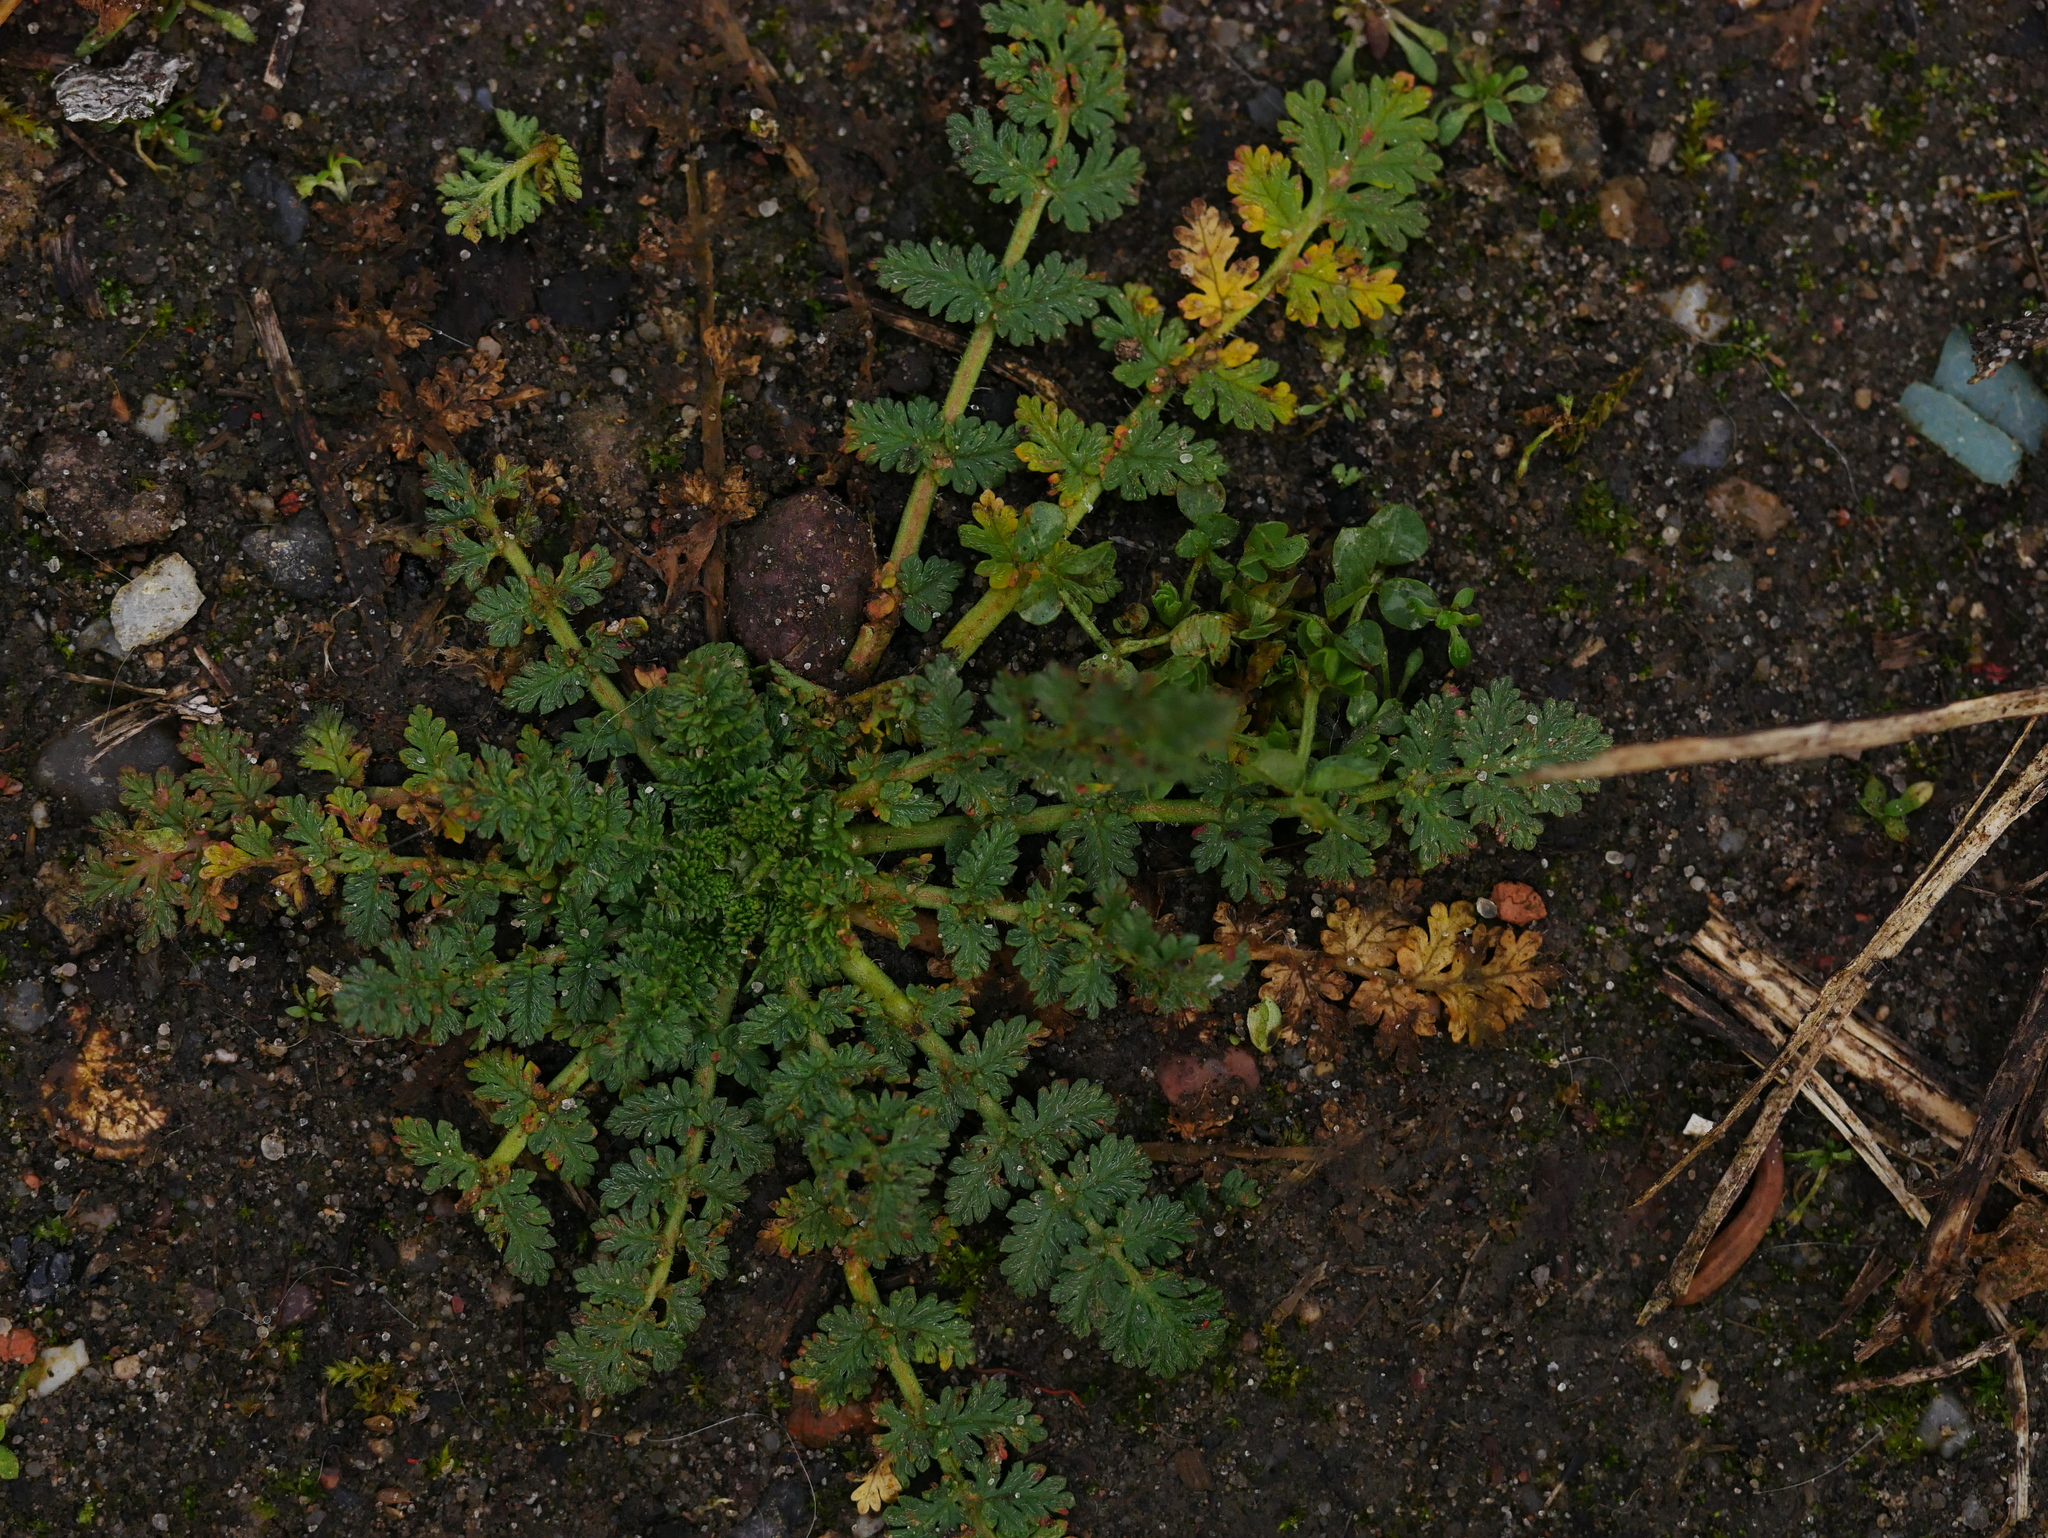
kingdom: Plantae
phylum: Tracheophyta
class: Magnoliopsida
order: Geraniales
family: Geraniaceae
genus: Erodium
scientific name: Erodium cicutarium
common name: Common stork's-bill
